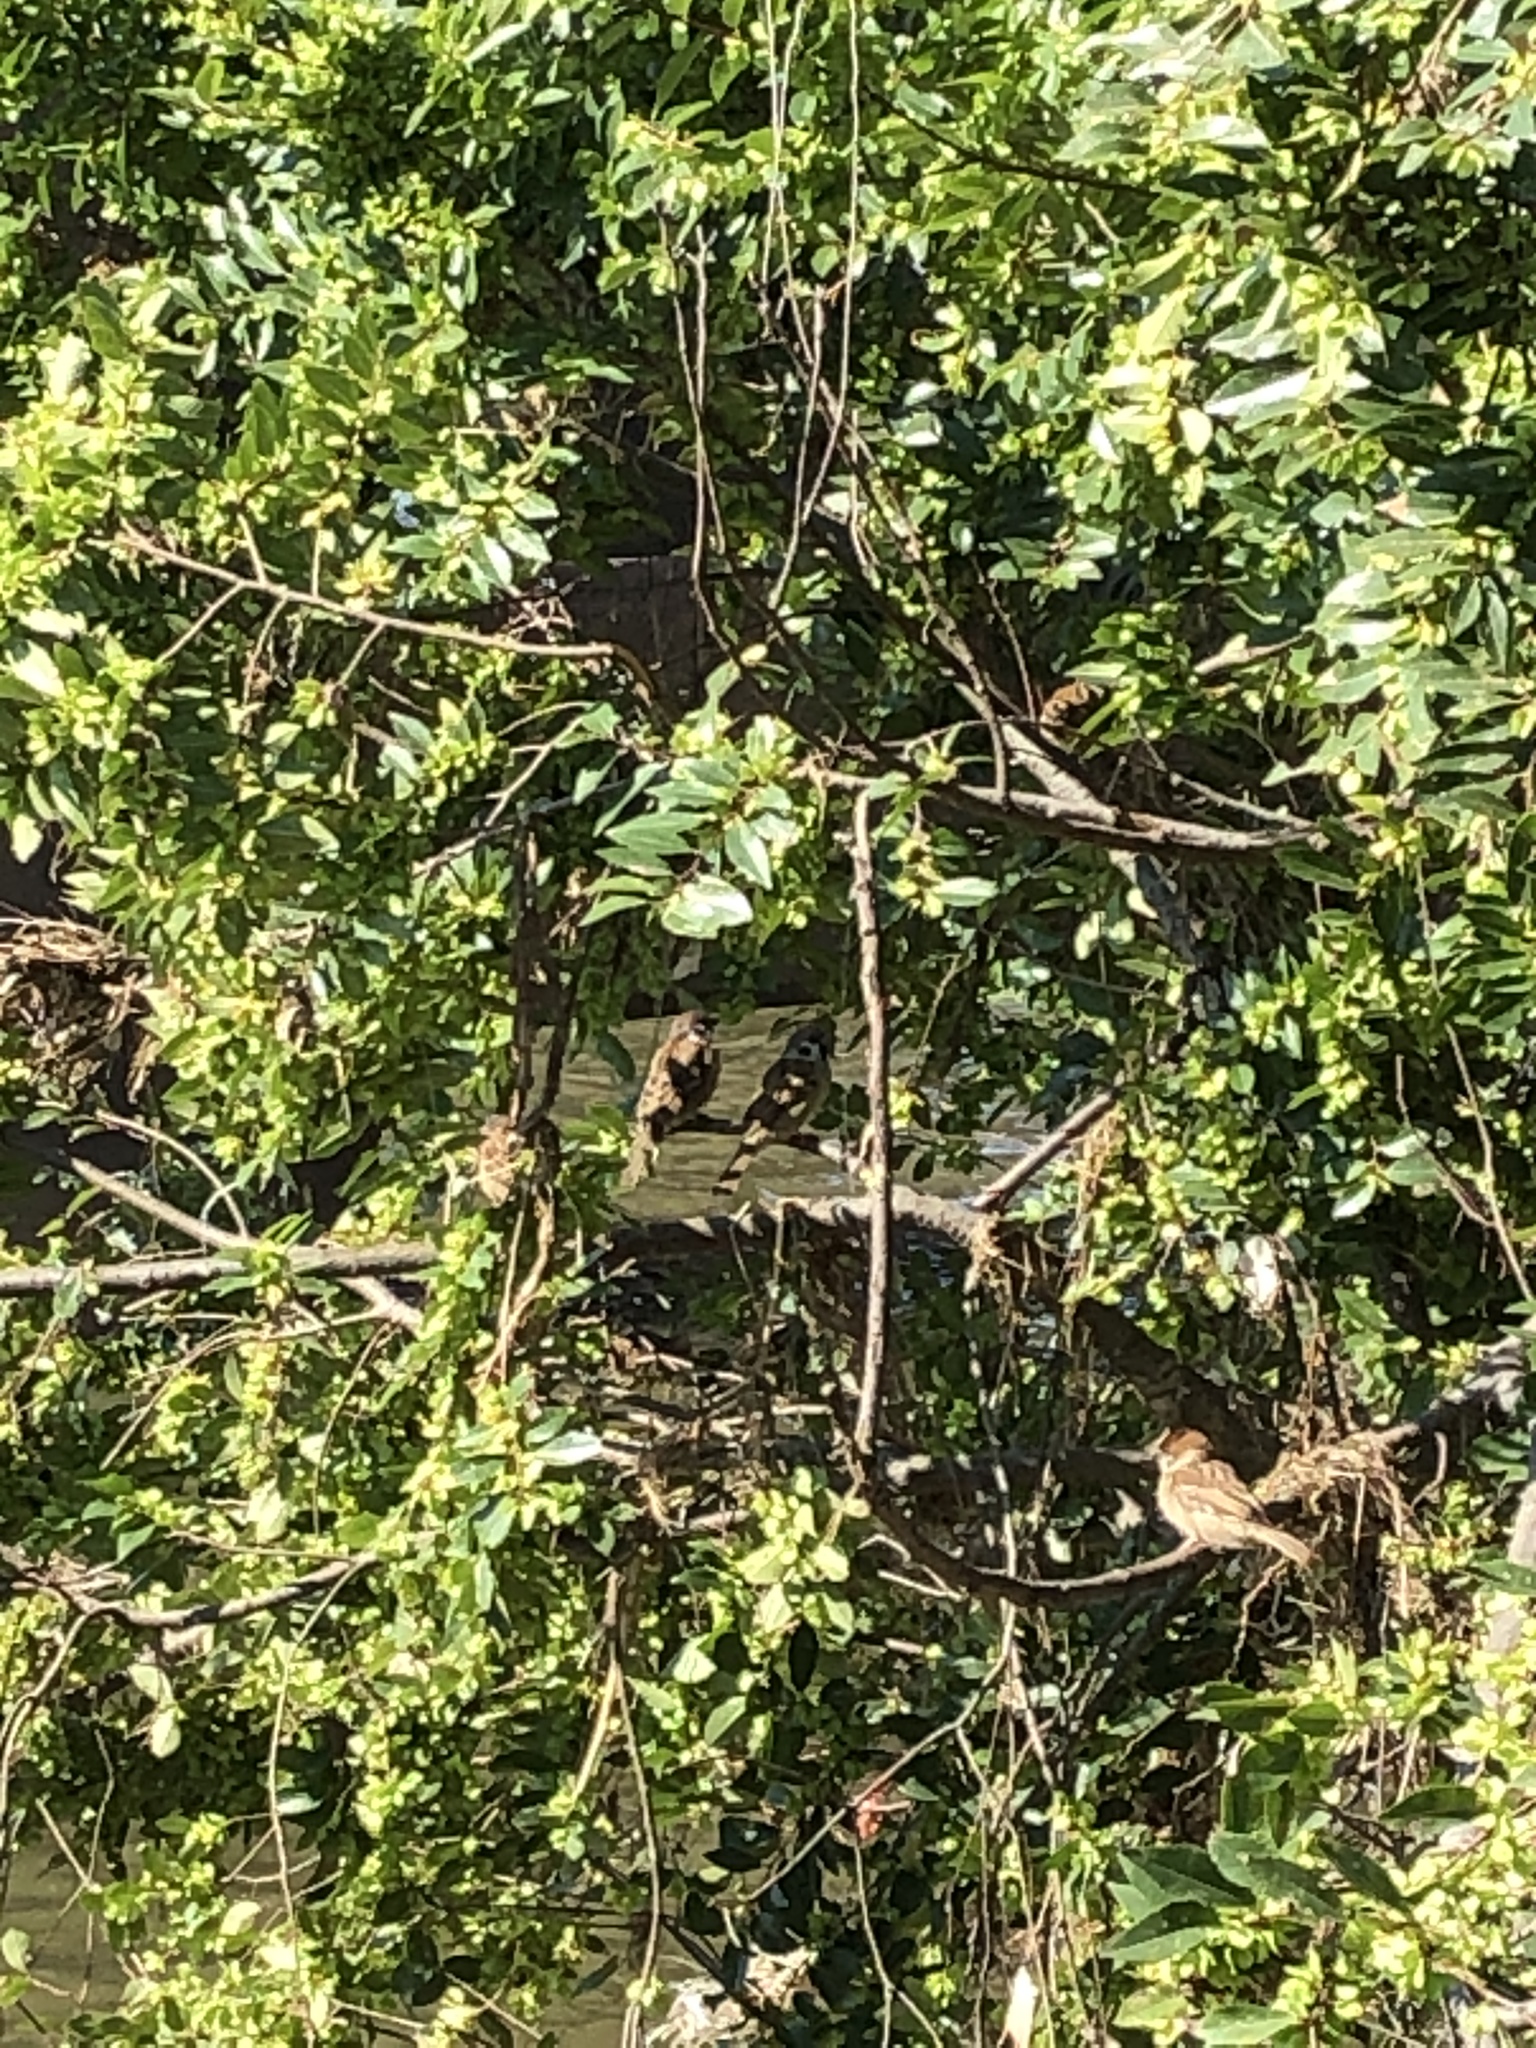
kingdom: Animalia
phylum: Chordata
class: Aves
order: Passeriformes
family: Passeridae
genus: Passer
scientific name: Passer montanus
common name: Eurasian tree sparrow
